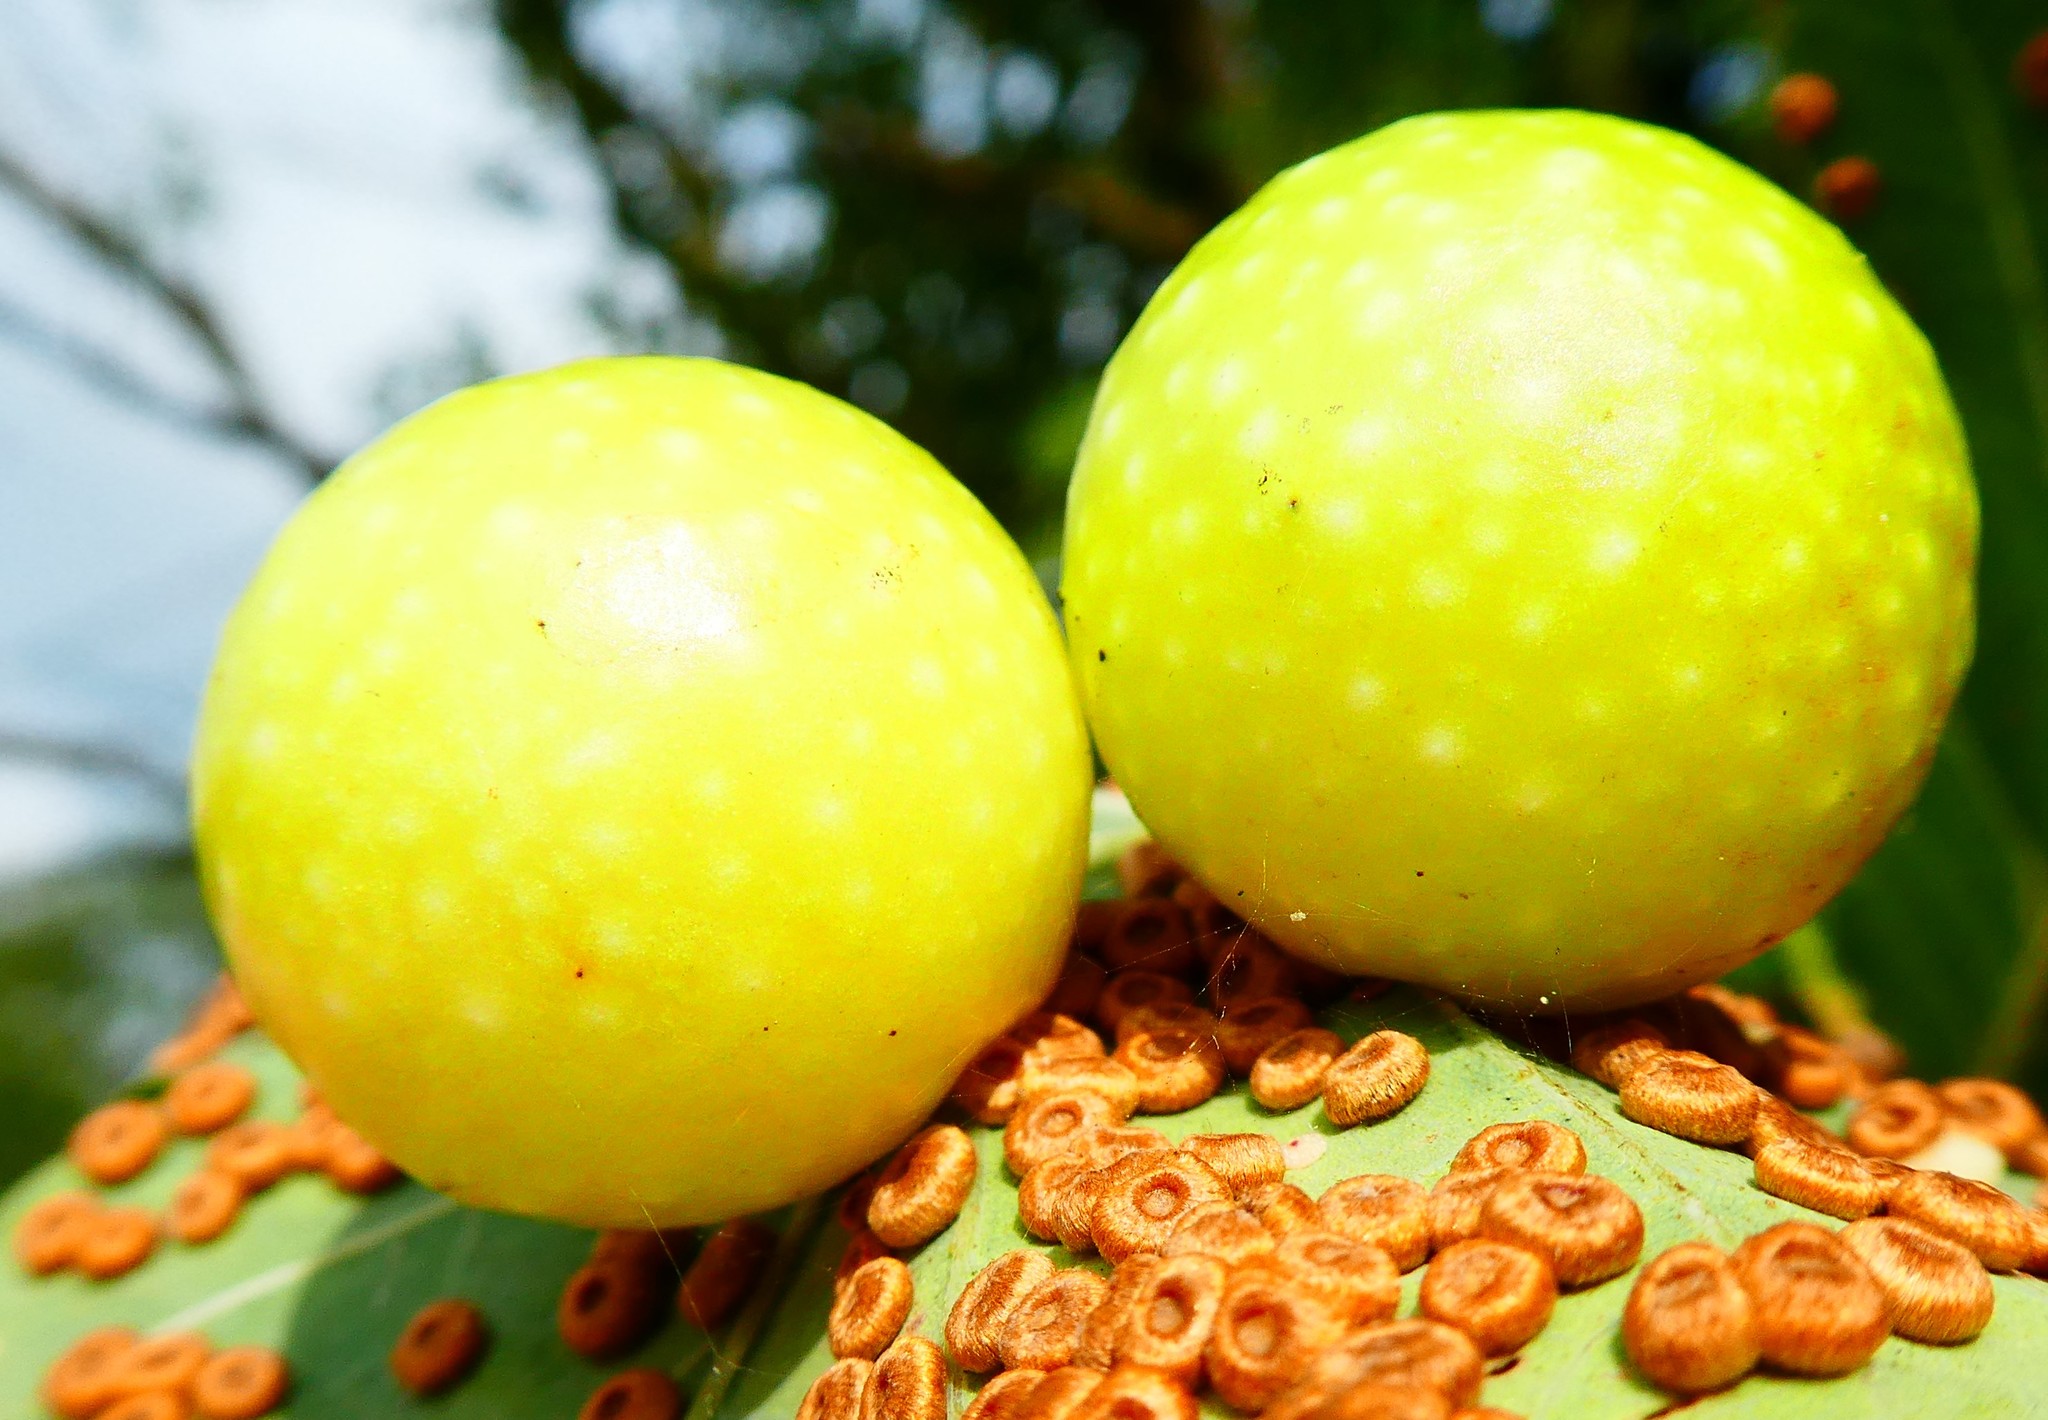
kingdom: Animalia
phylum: Arthropoda
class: Insecta
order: Hymenoptera
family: Cynipidae
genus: Cynips
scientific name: Cynips quercusfolii
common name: Cherry gall
